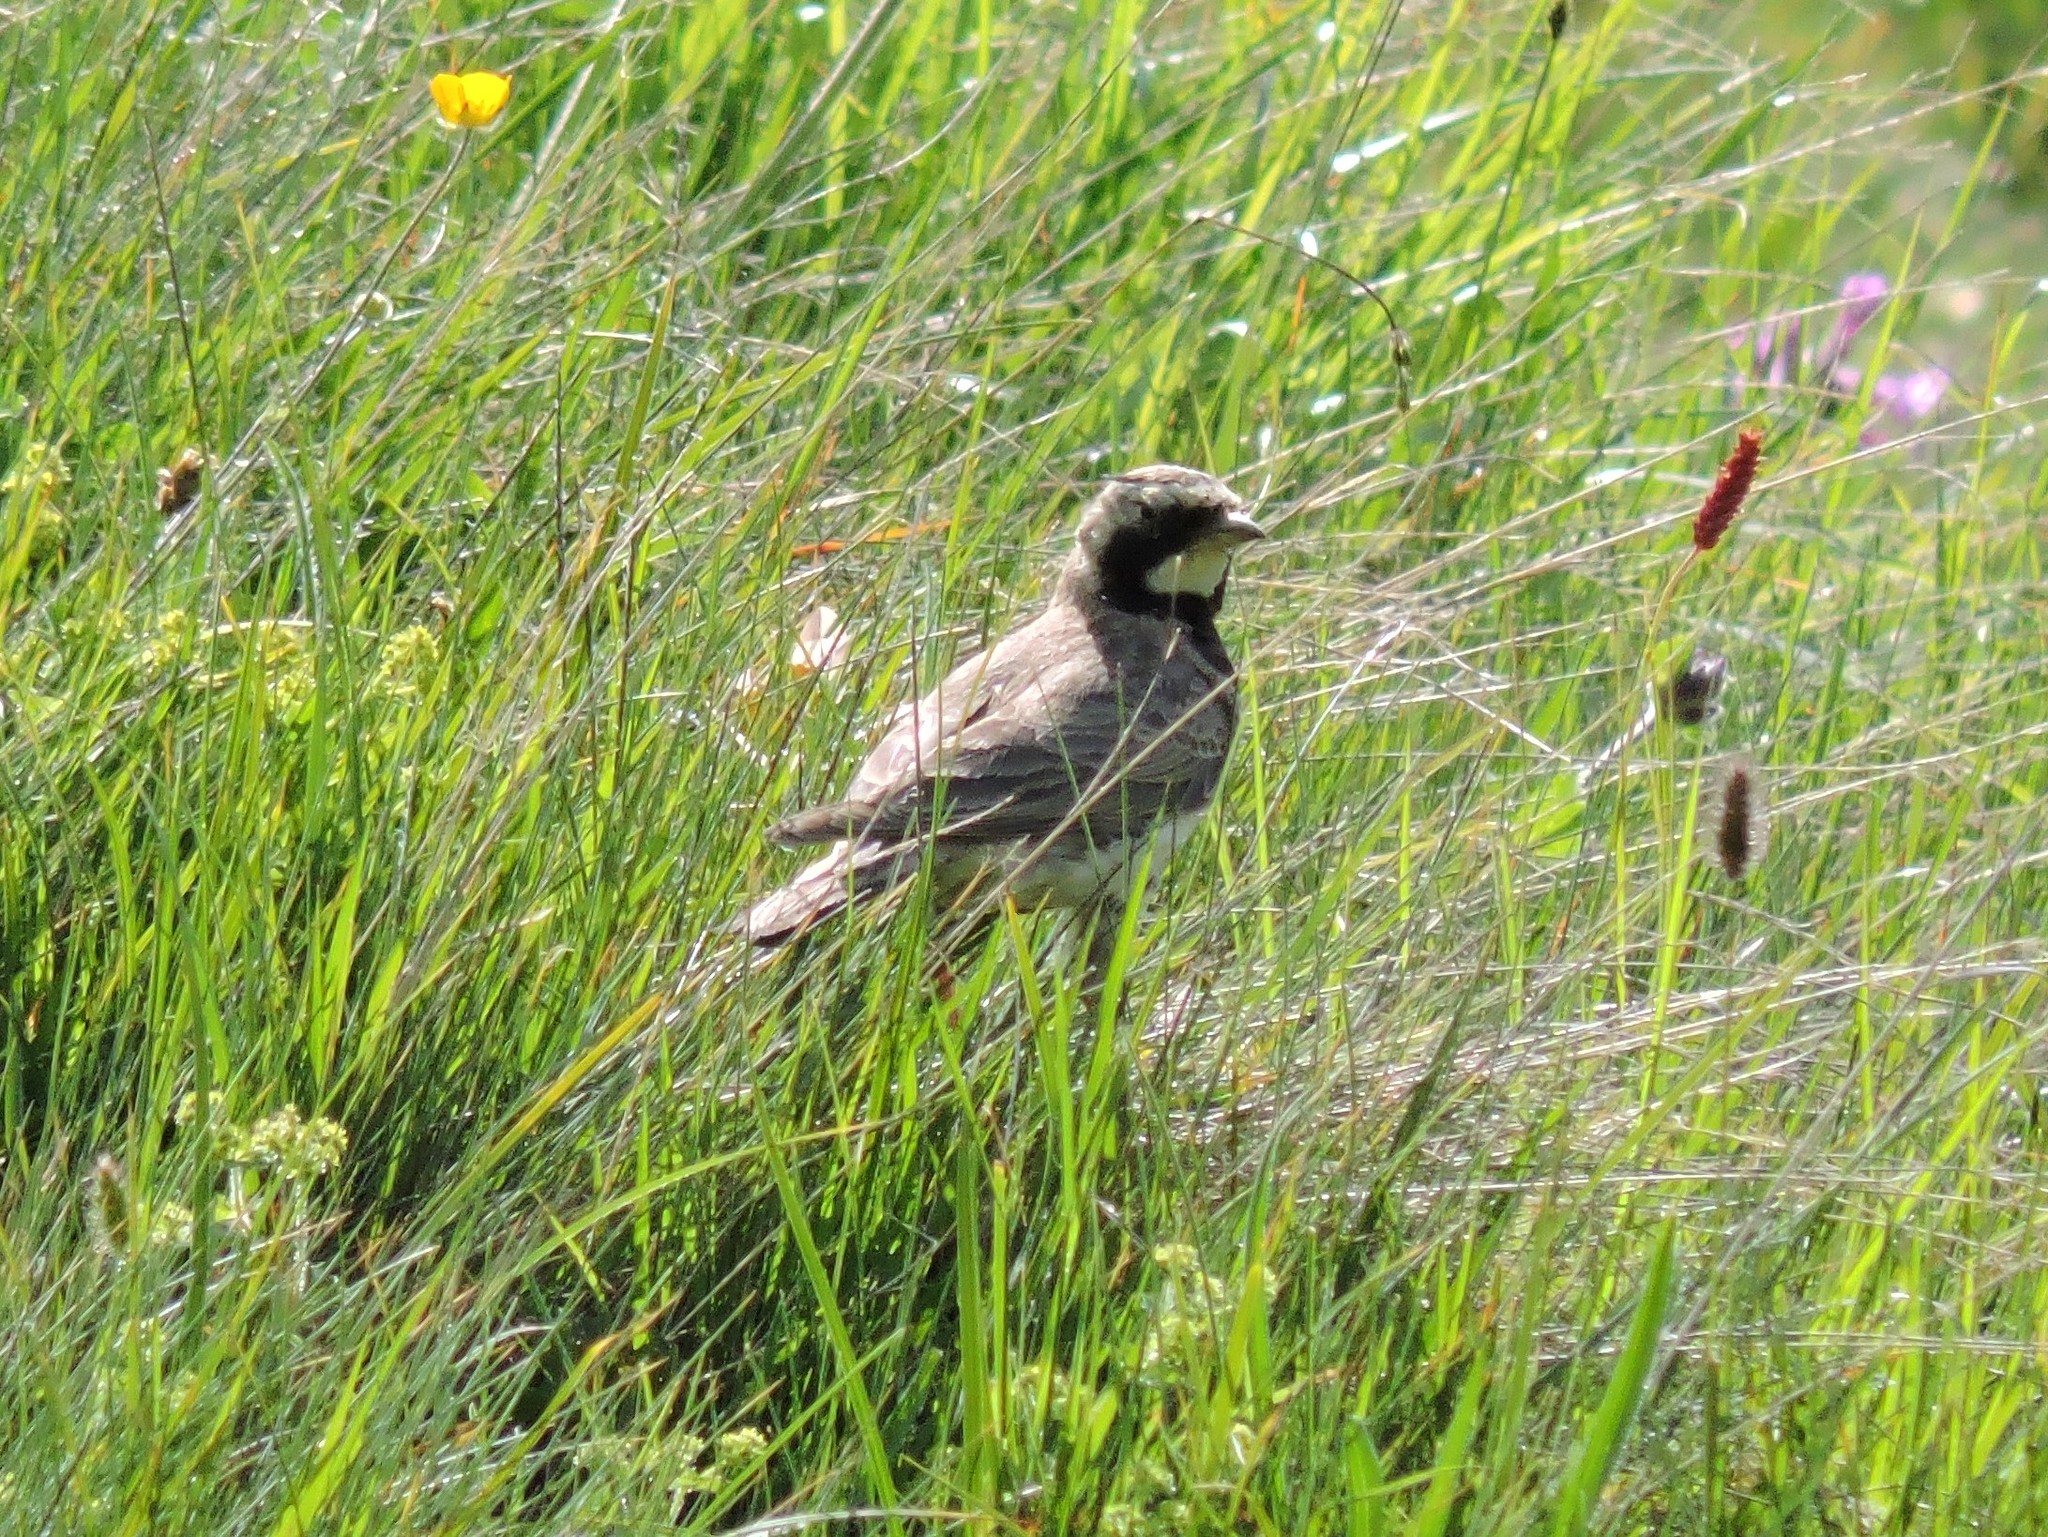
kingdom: Animalia
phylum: Chordata
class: Aves
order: Passeriformes
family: Alaudidae
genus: Eremophila
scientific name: Eremophila alpestris
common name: Horned lark
